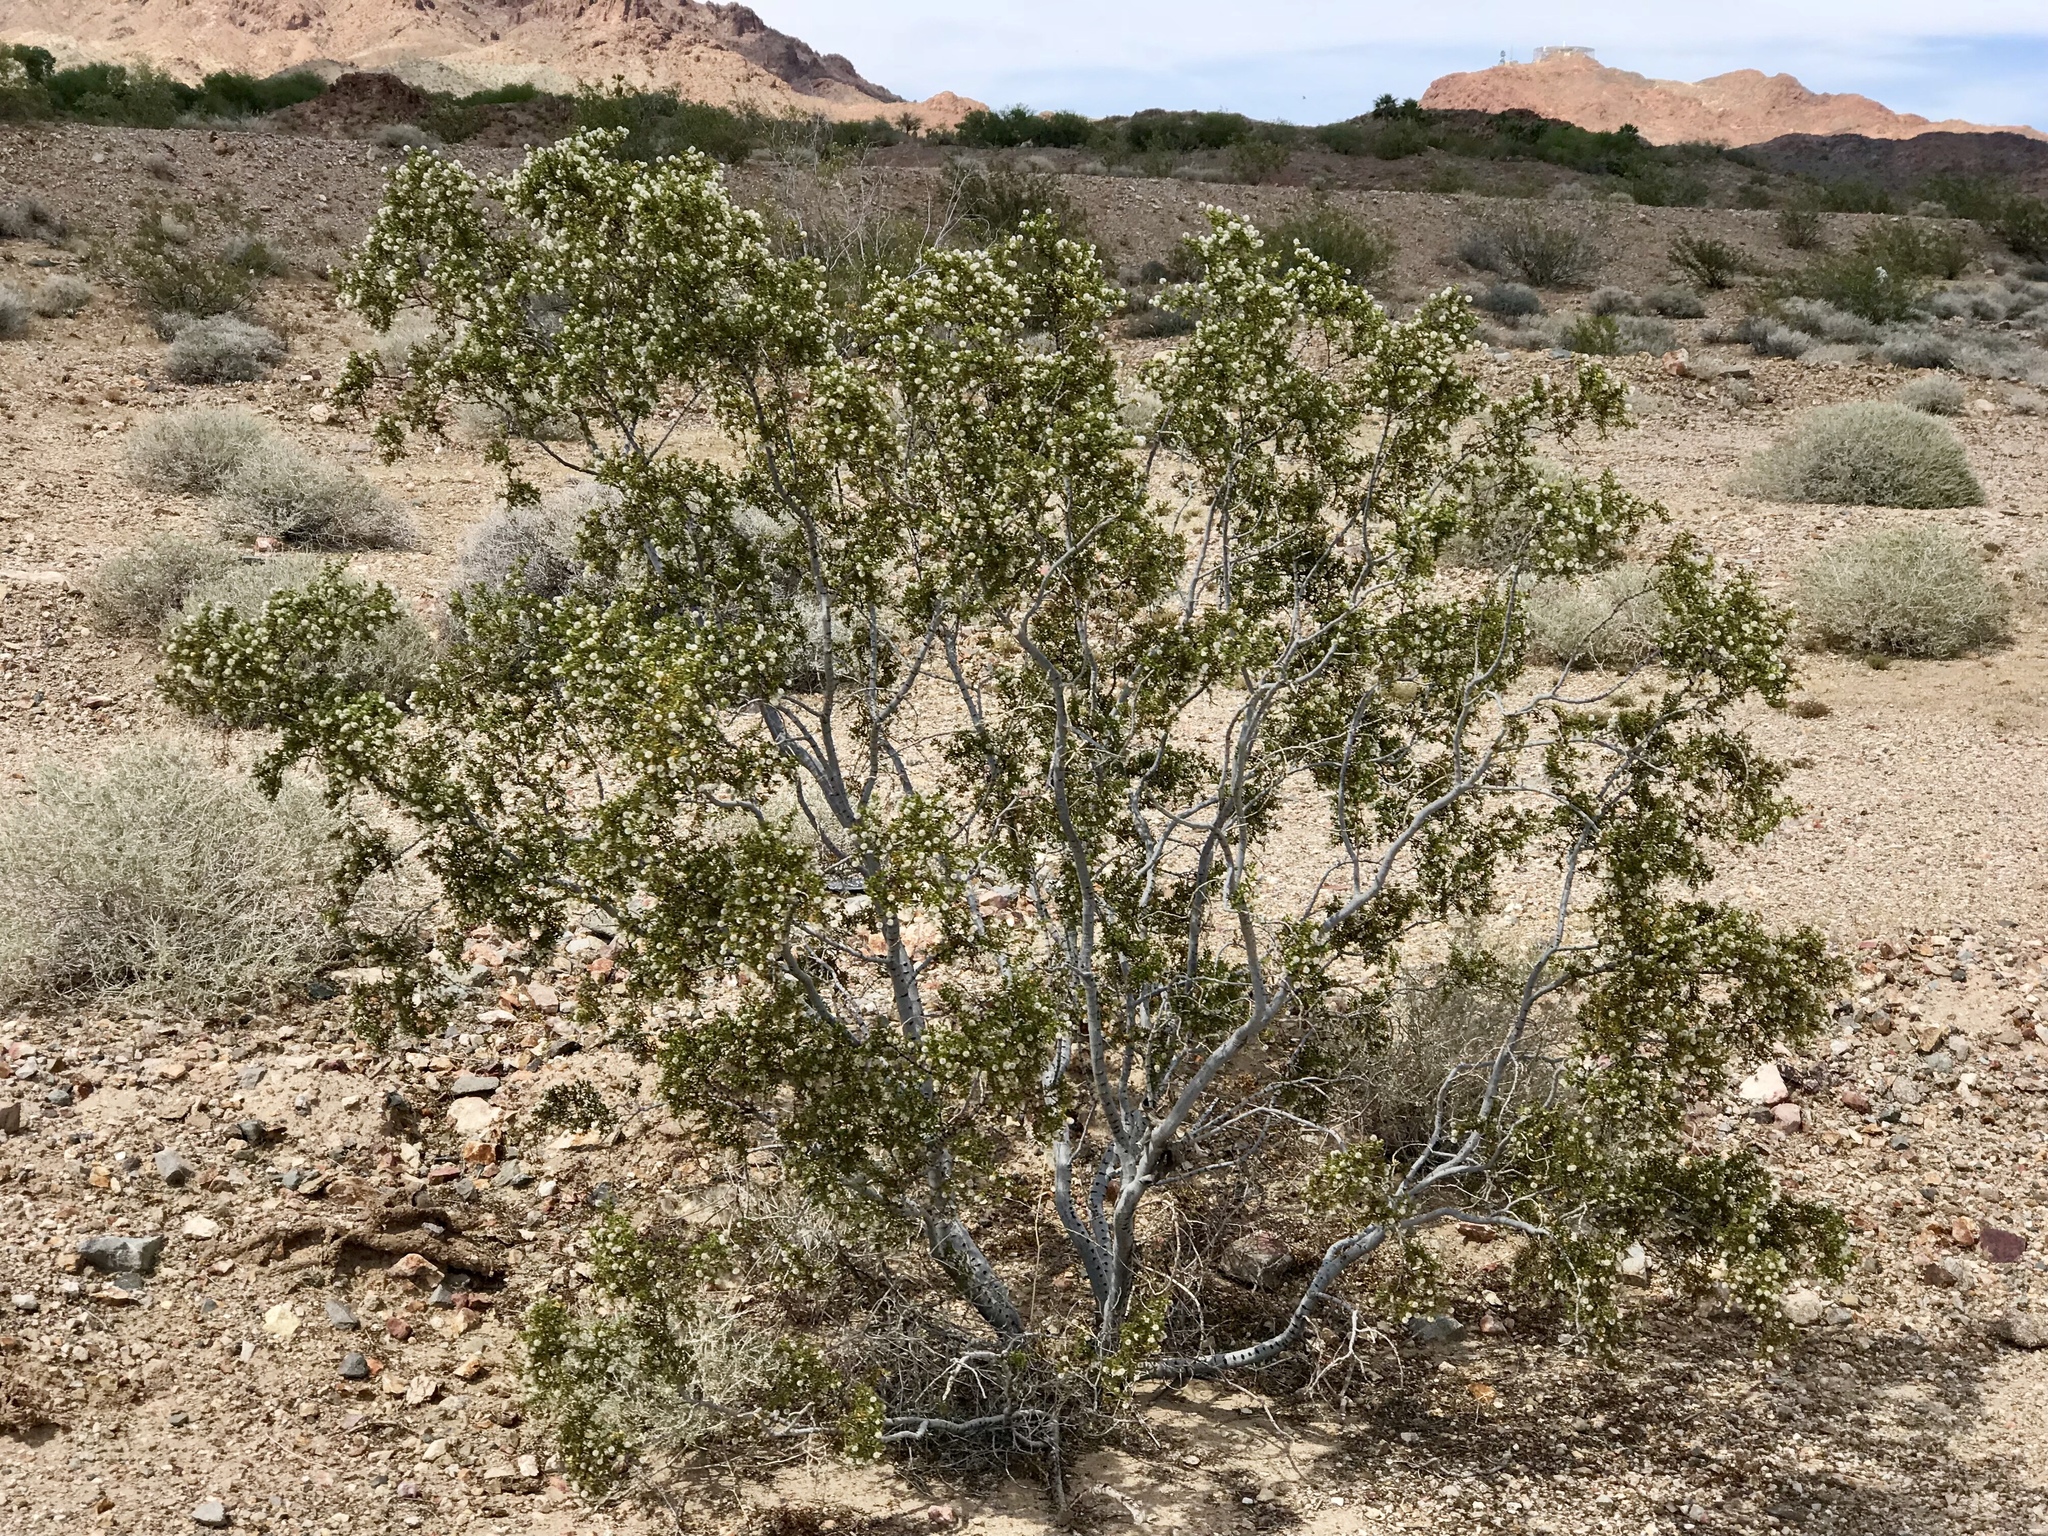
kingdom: Plantae
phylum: Tracheophyta
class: Magnoliopsida
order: Zygophyllales
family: Zygophyllaceae
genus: Larrea
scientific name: Larrea tridentata
